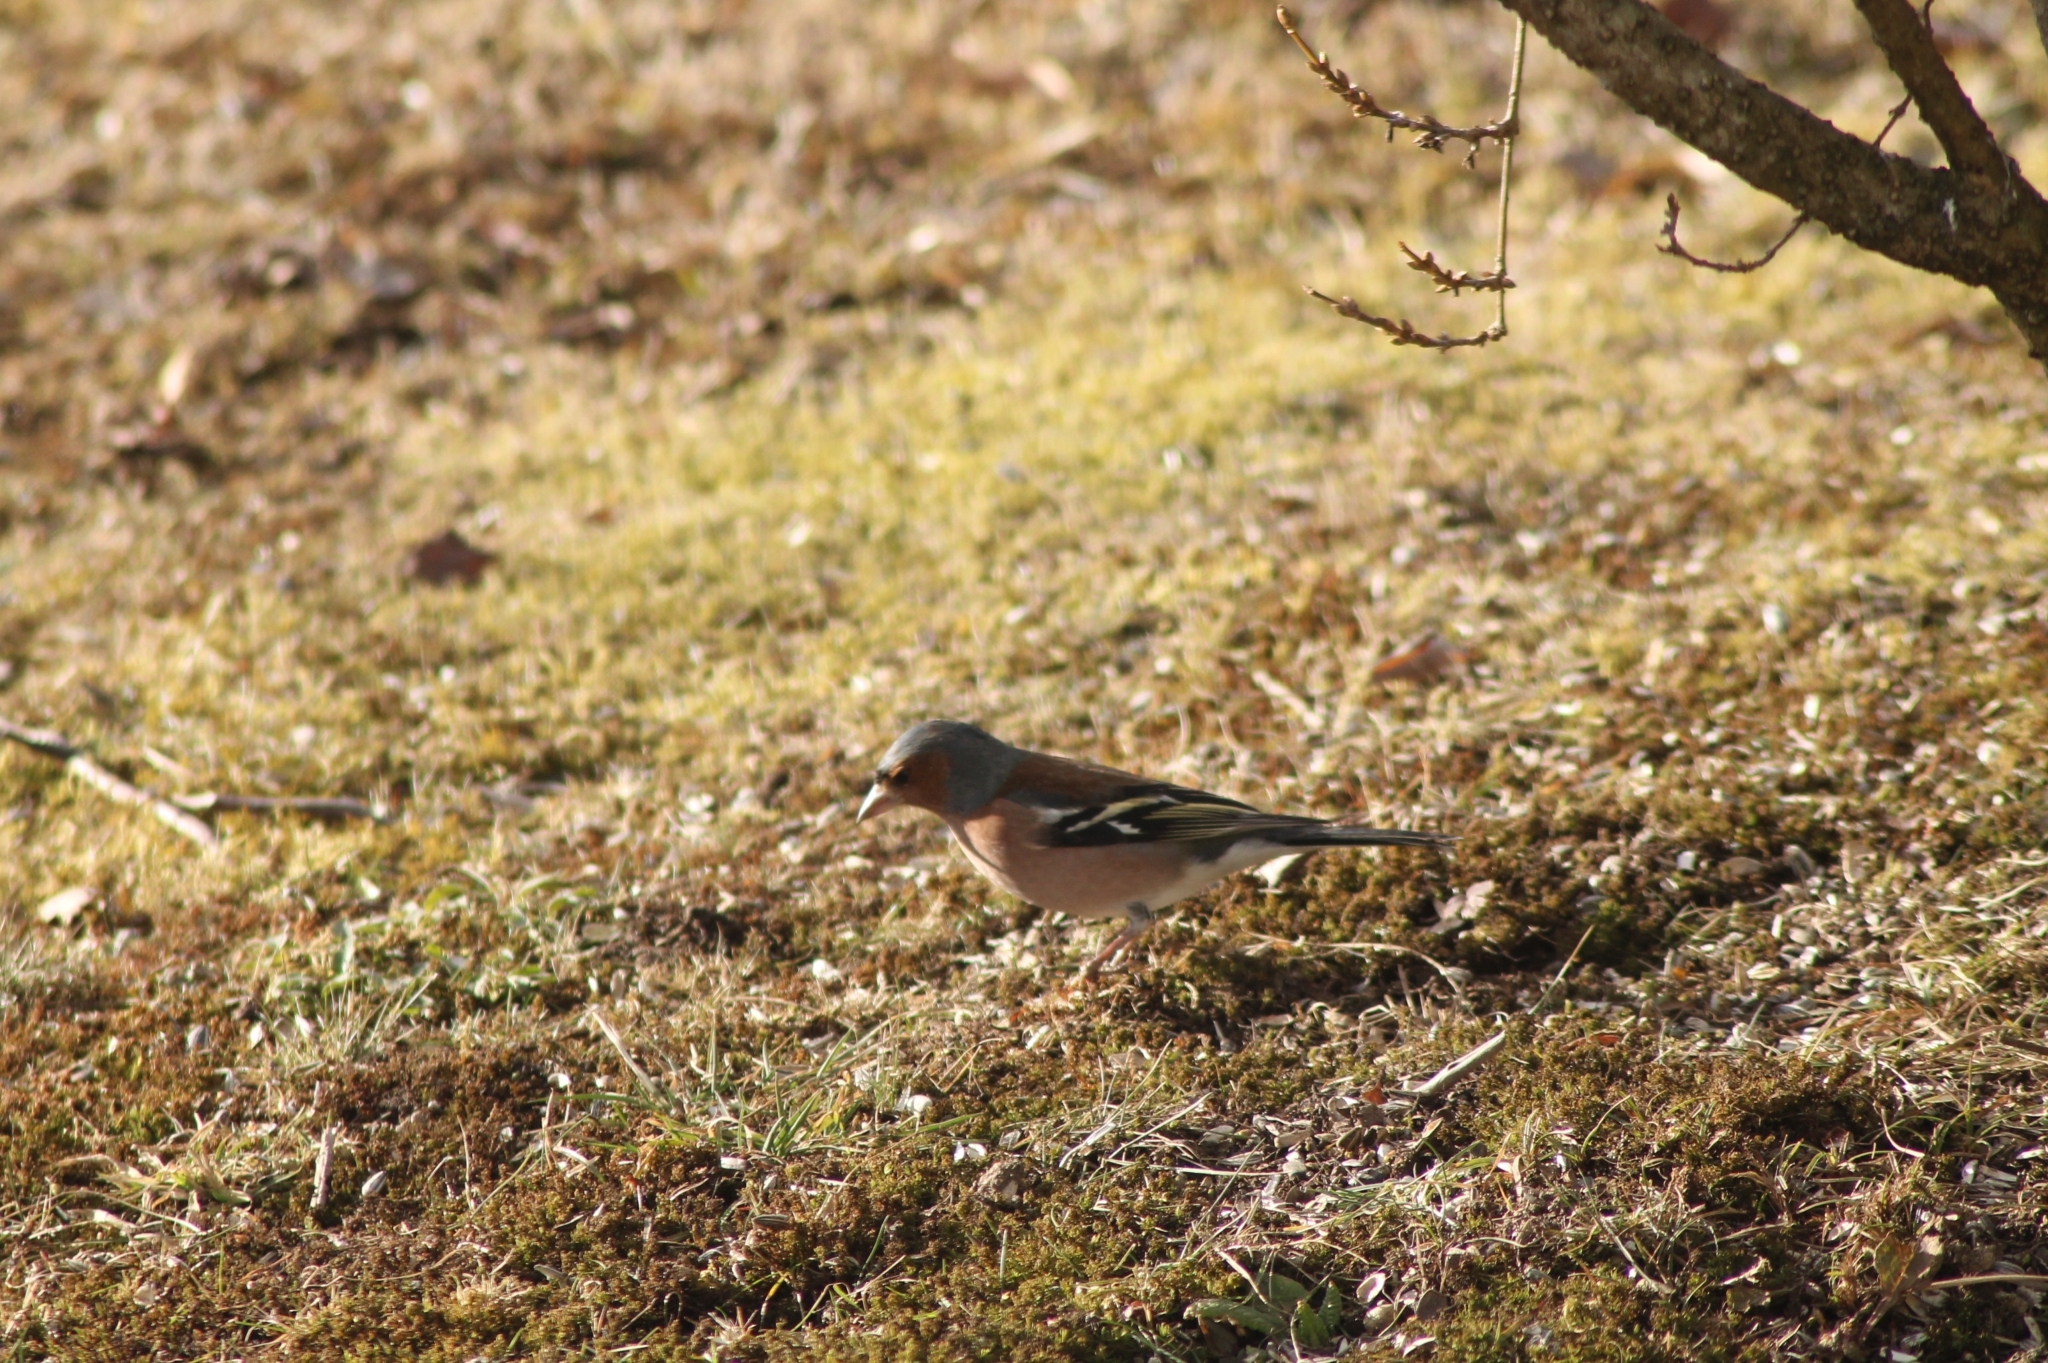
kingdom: Animalia
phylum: Chordata
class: Aves
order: Passeriformes
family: Fringillidae
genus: Fringilla
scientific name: Fringilla coelebs
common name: Common chaffinch
